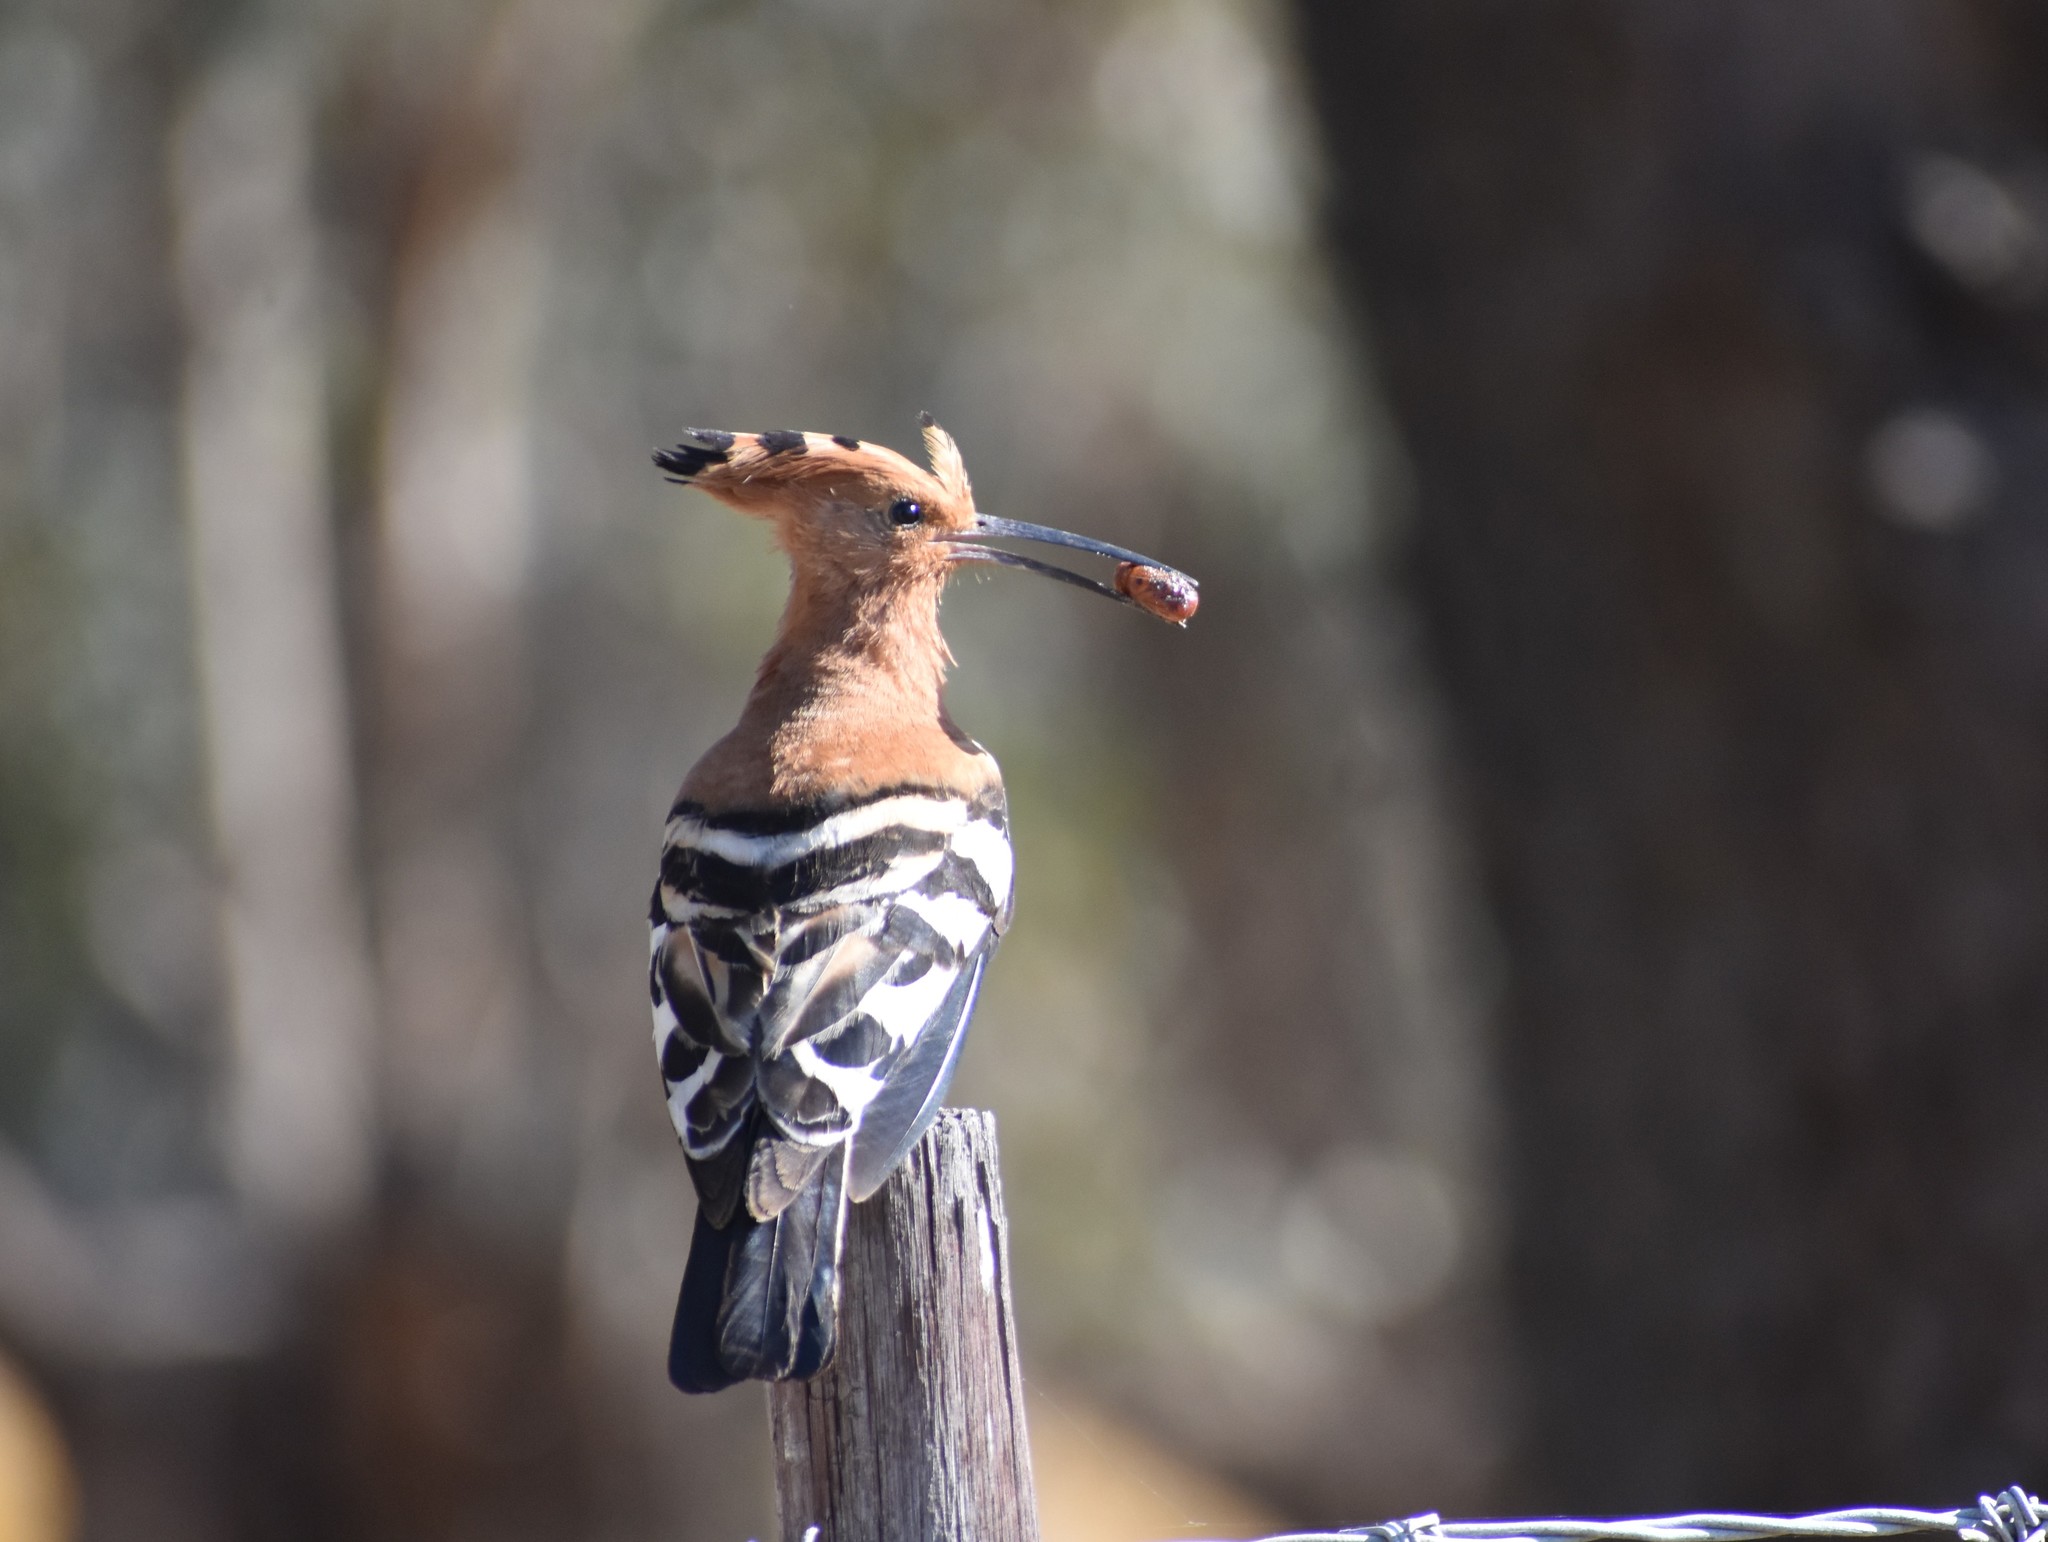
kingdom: Animalia
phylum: Chordata
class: Aves
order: Bucerotiformes
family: Upupidae
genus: Upupa
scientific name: Upupa africana
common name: African hoopoe
